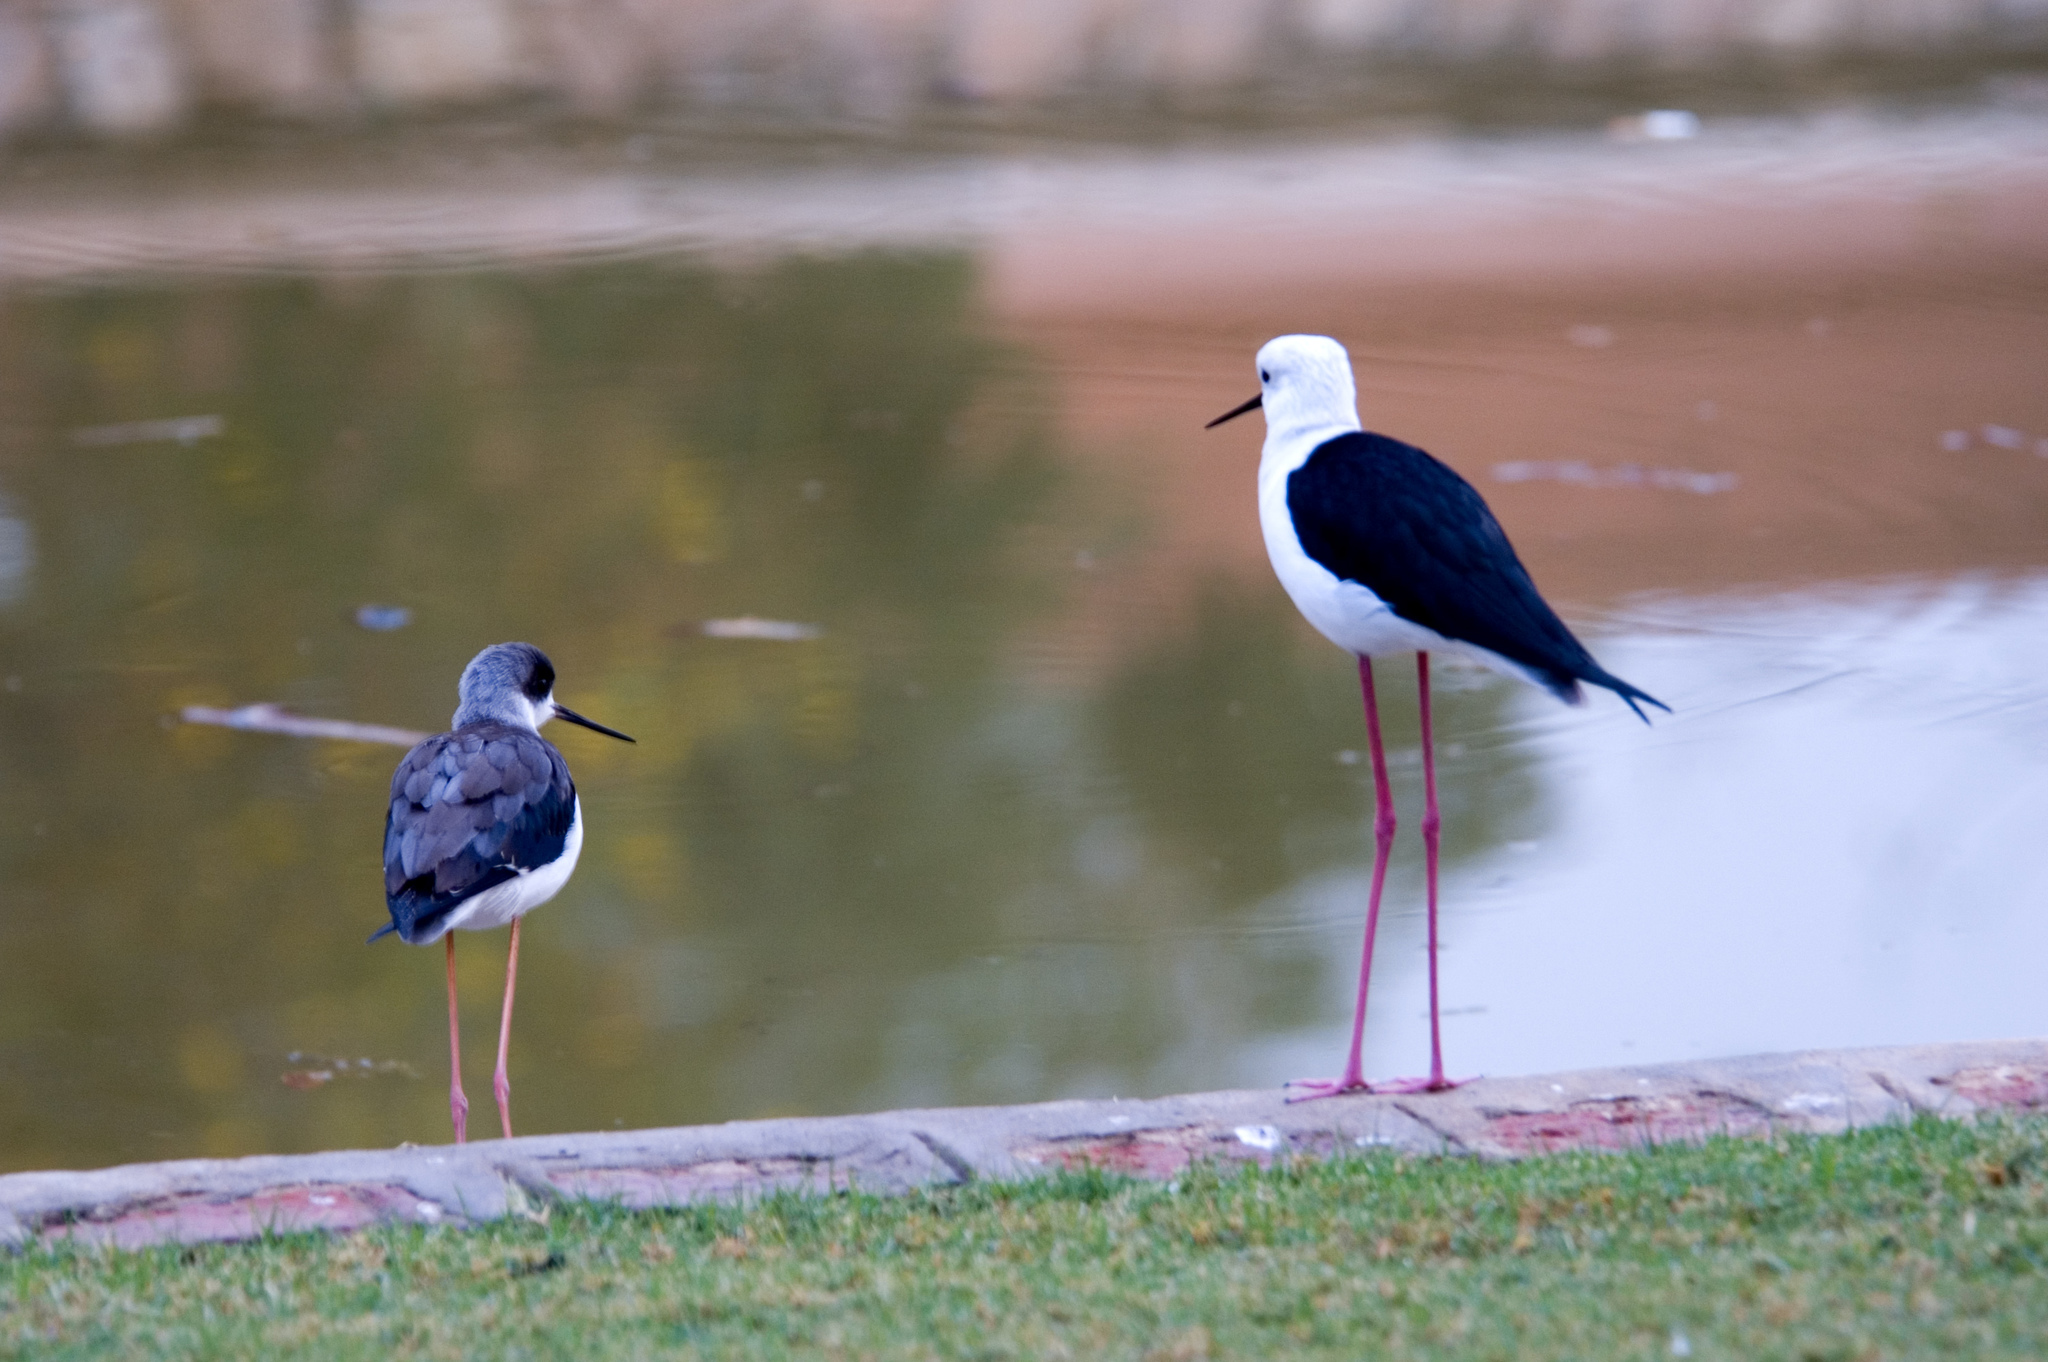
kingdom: Animalia
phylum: Chordata
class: Aves
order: Charadriiformes
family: Recurvirostridae
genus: Himantopus
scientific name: Himantopus himantopus
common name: Black-winged stilt
